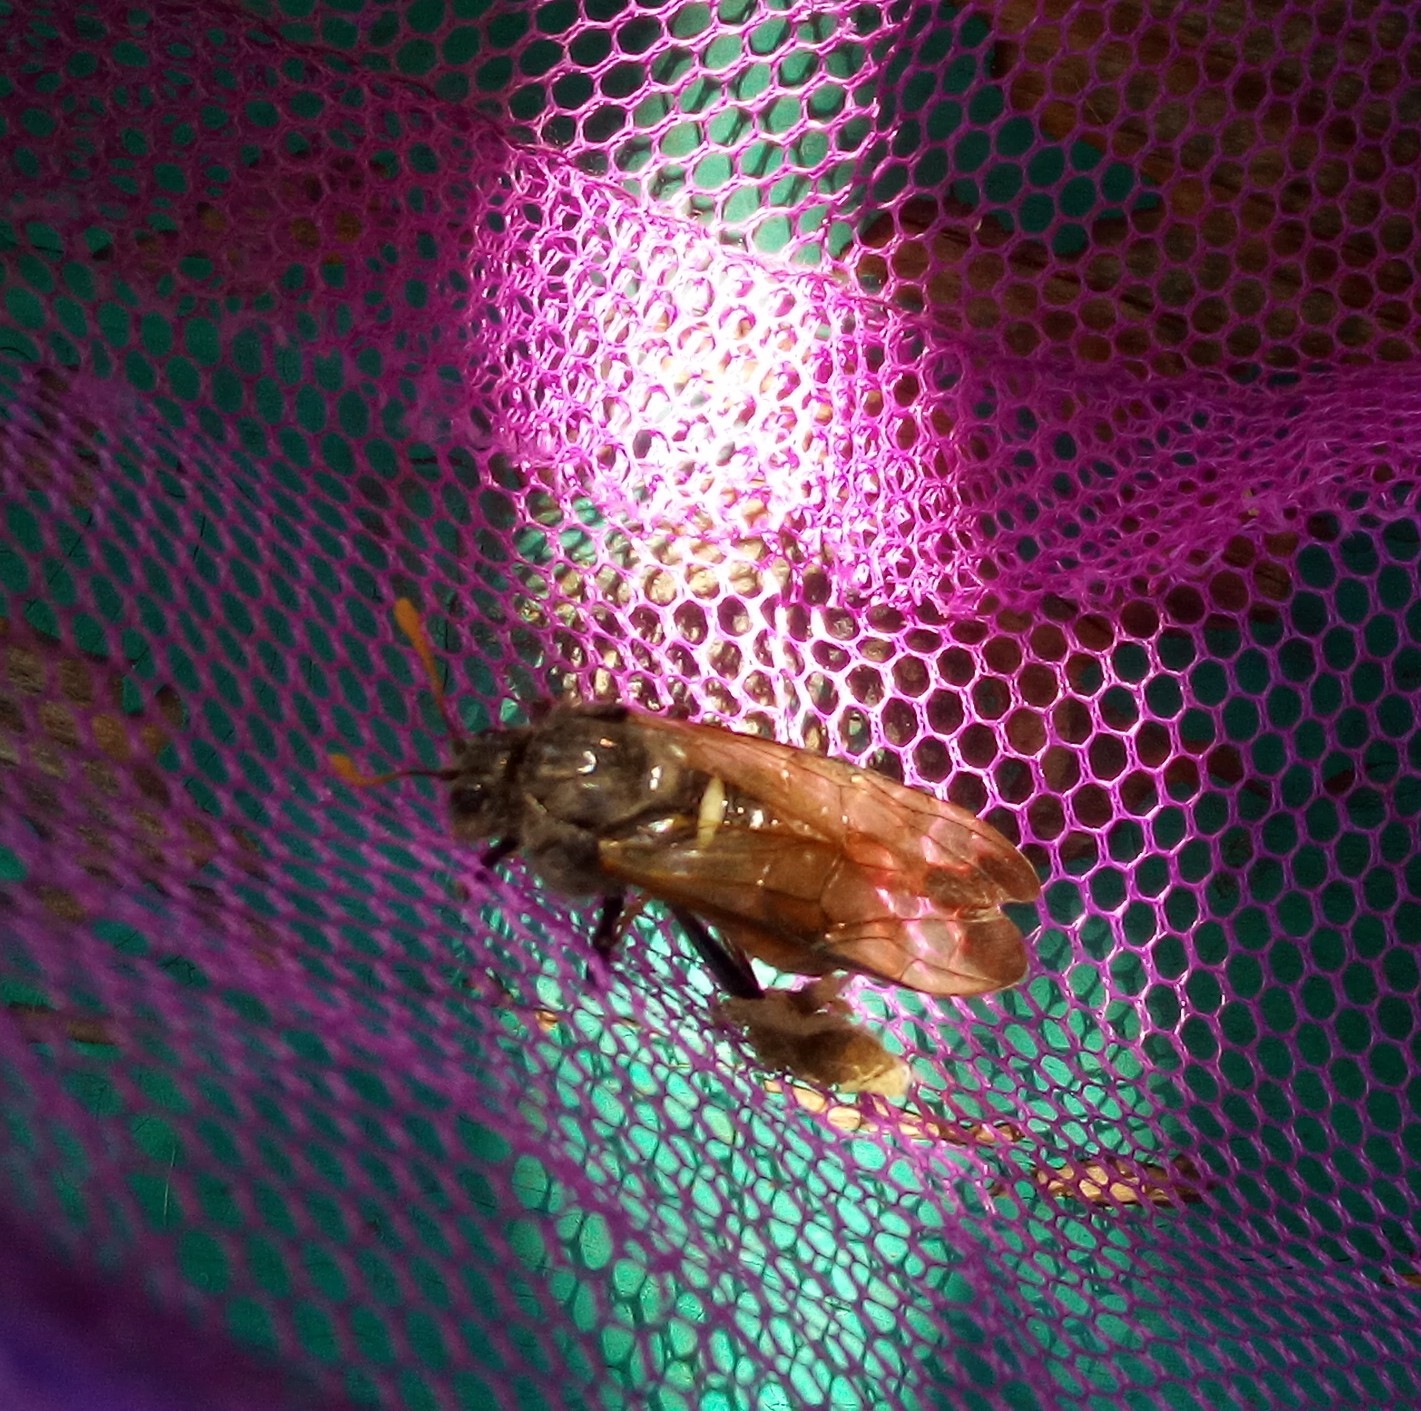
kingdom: Animalia
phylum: Arthropoda
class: Insecta
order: Hymenoptera
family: Cimbicidae
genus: Cimbex
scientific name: Cimbex femoratus
